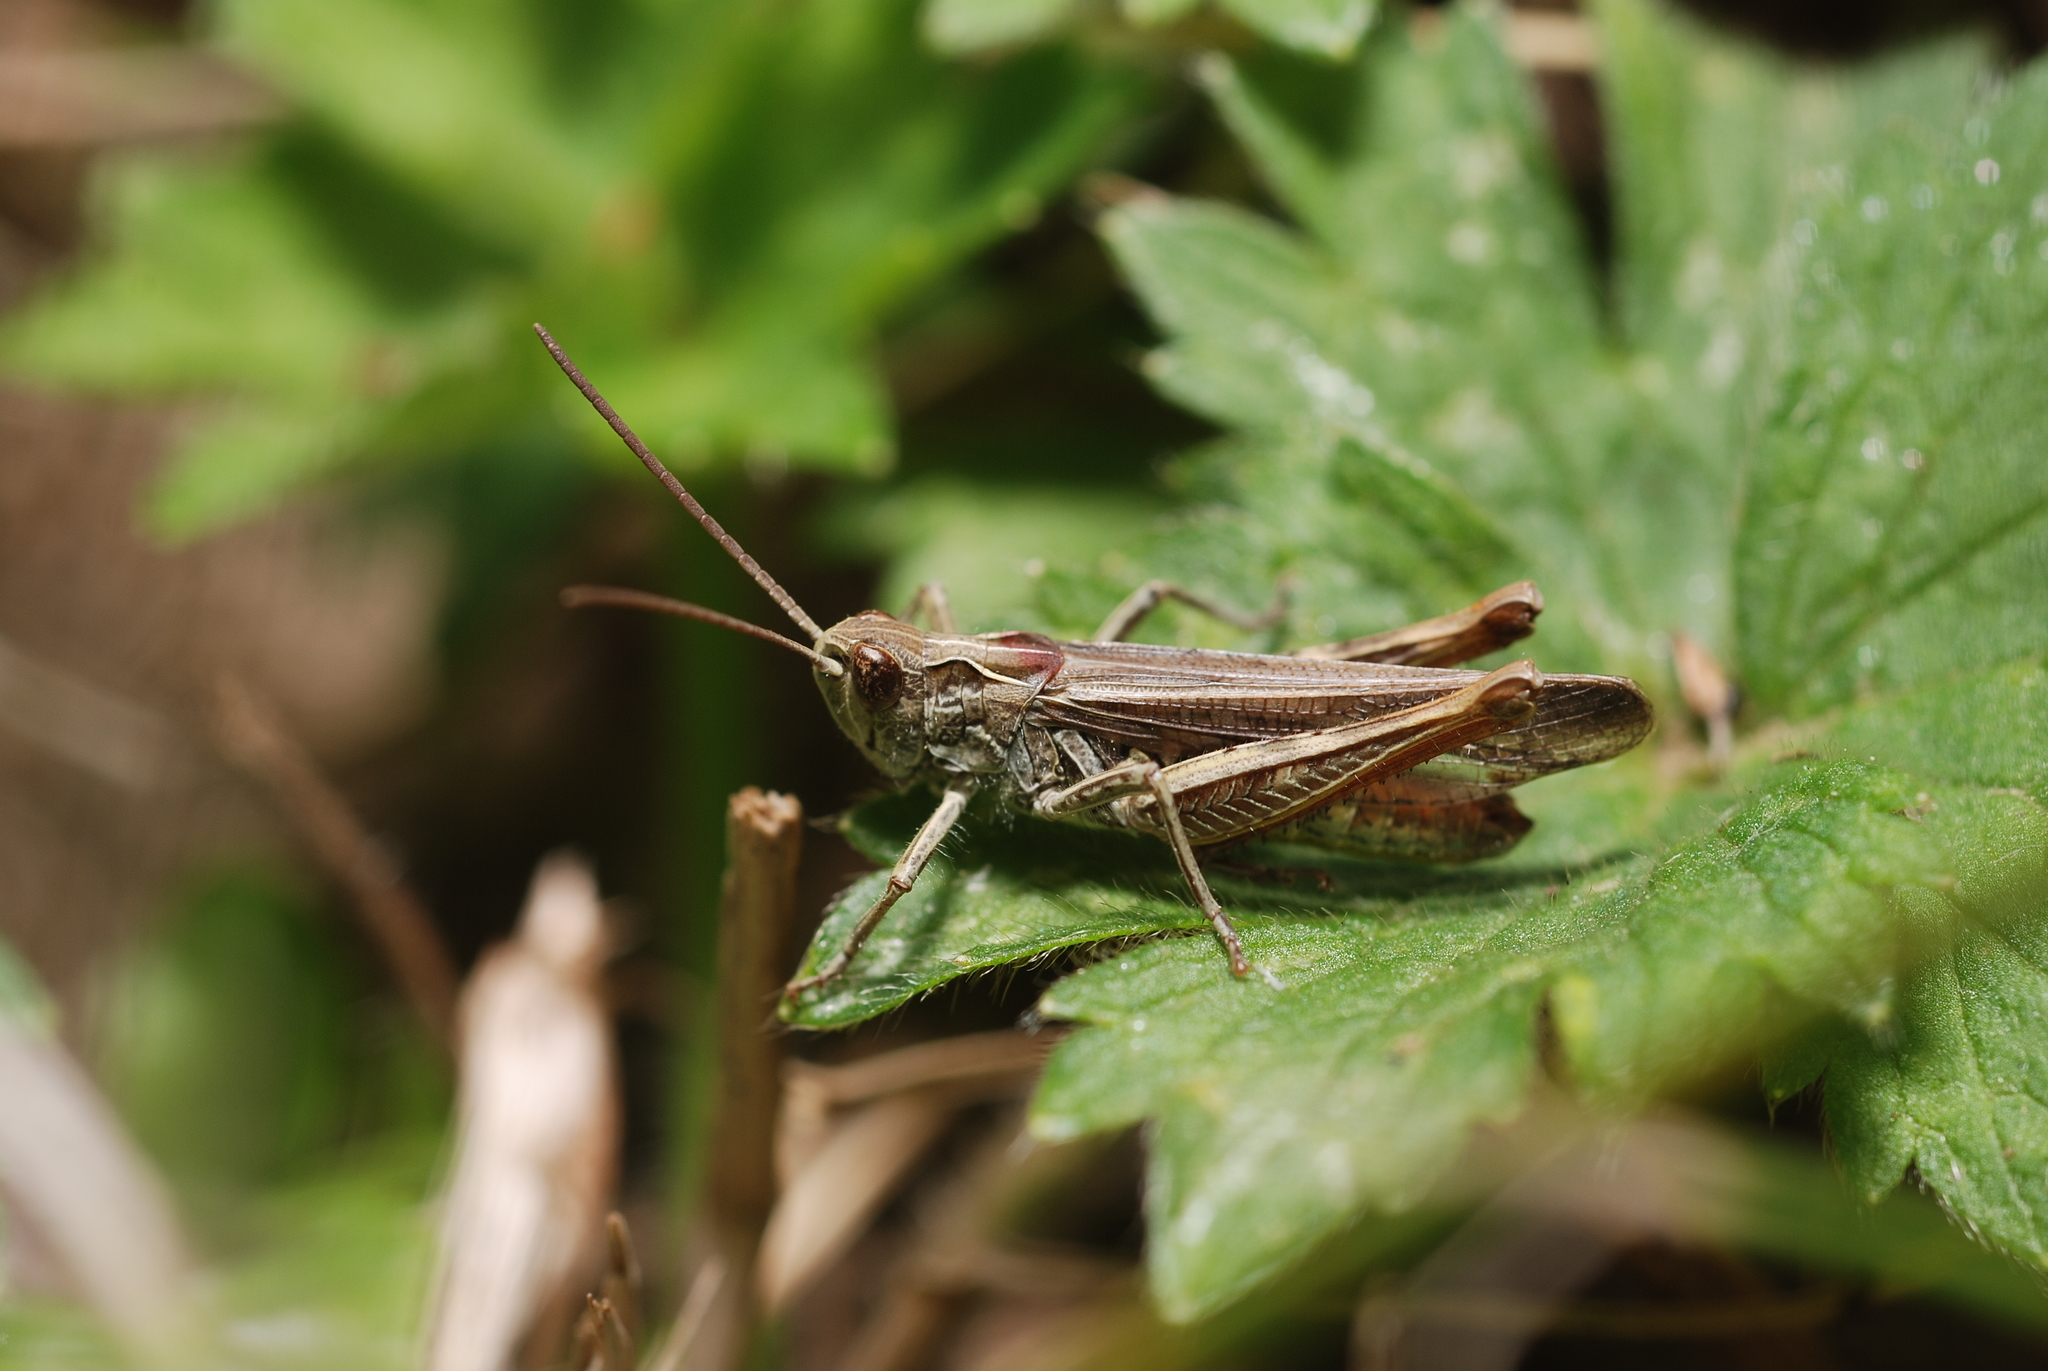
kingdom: Animalia
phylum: Arthropoda
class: Insecta
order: Orthoptera
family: Acrididae
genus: Chorthippus
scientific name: Chorthippus biguttulus
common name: Bow-winged grasshopper
